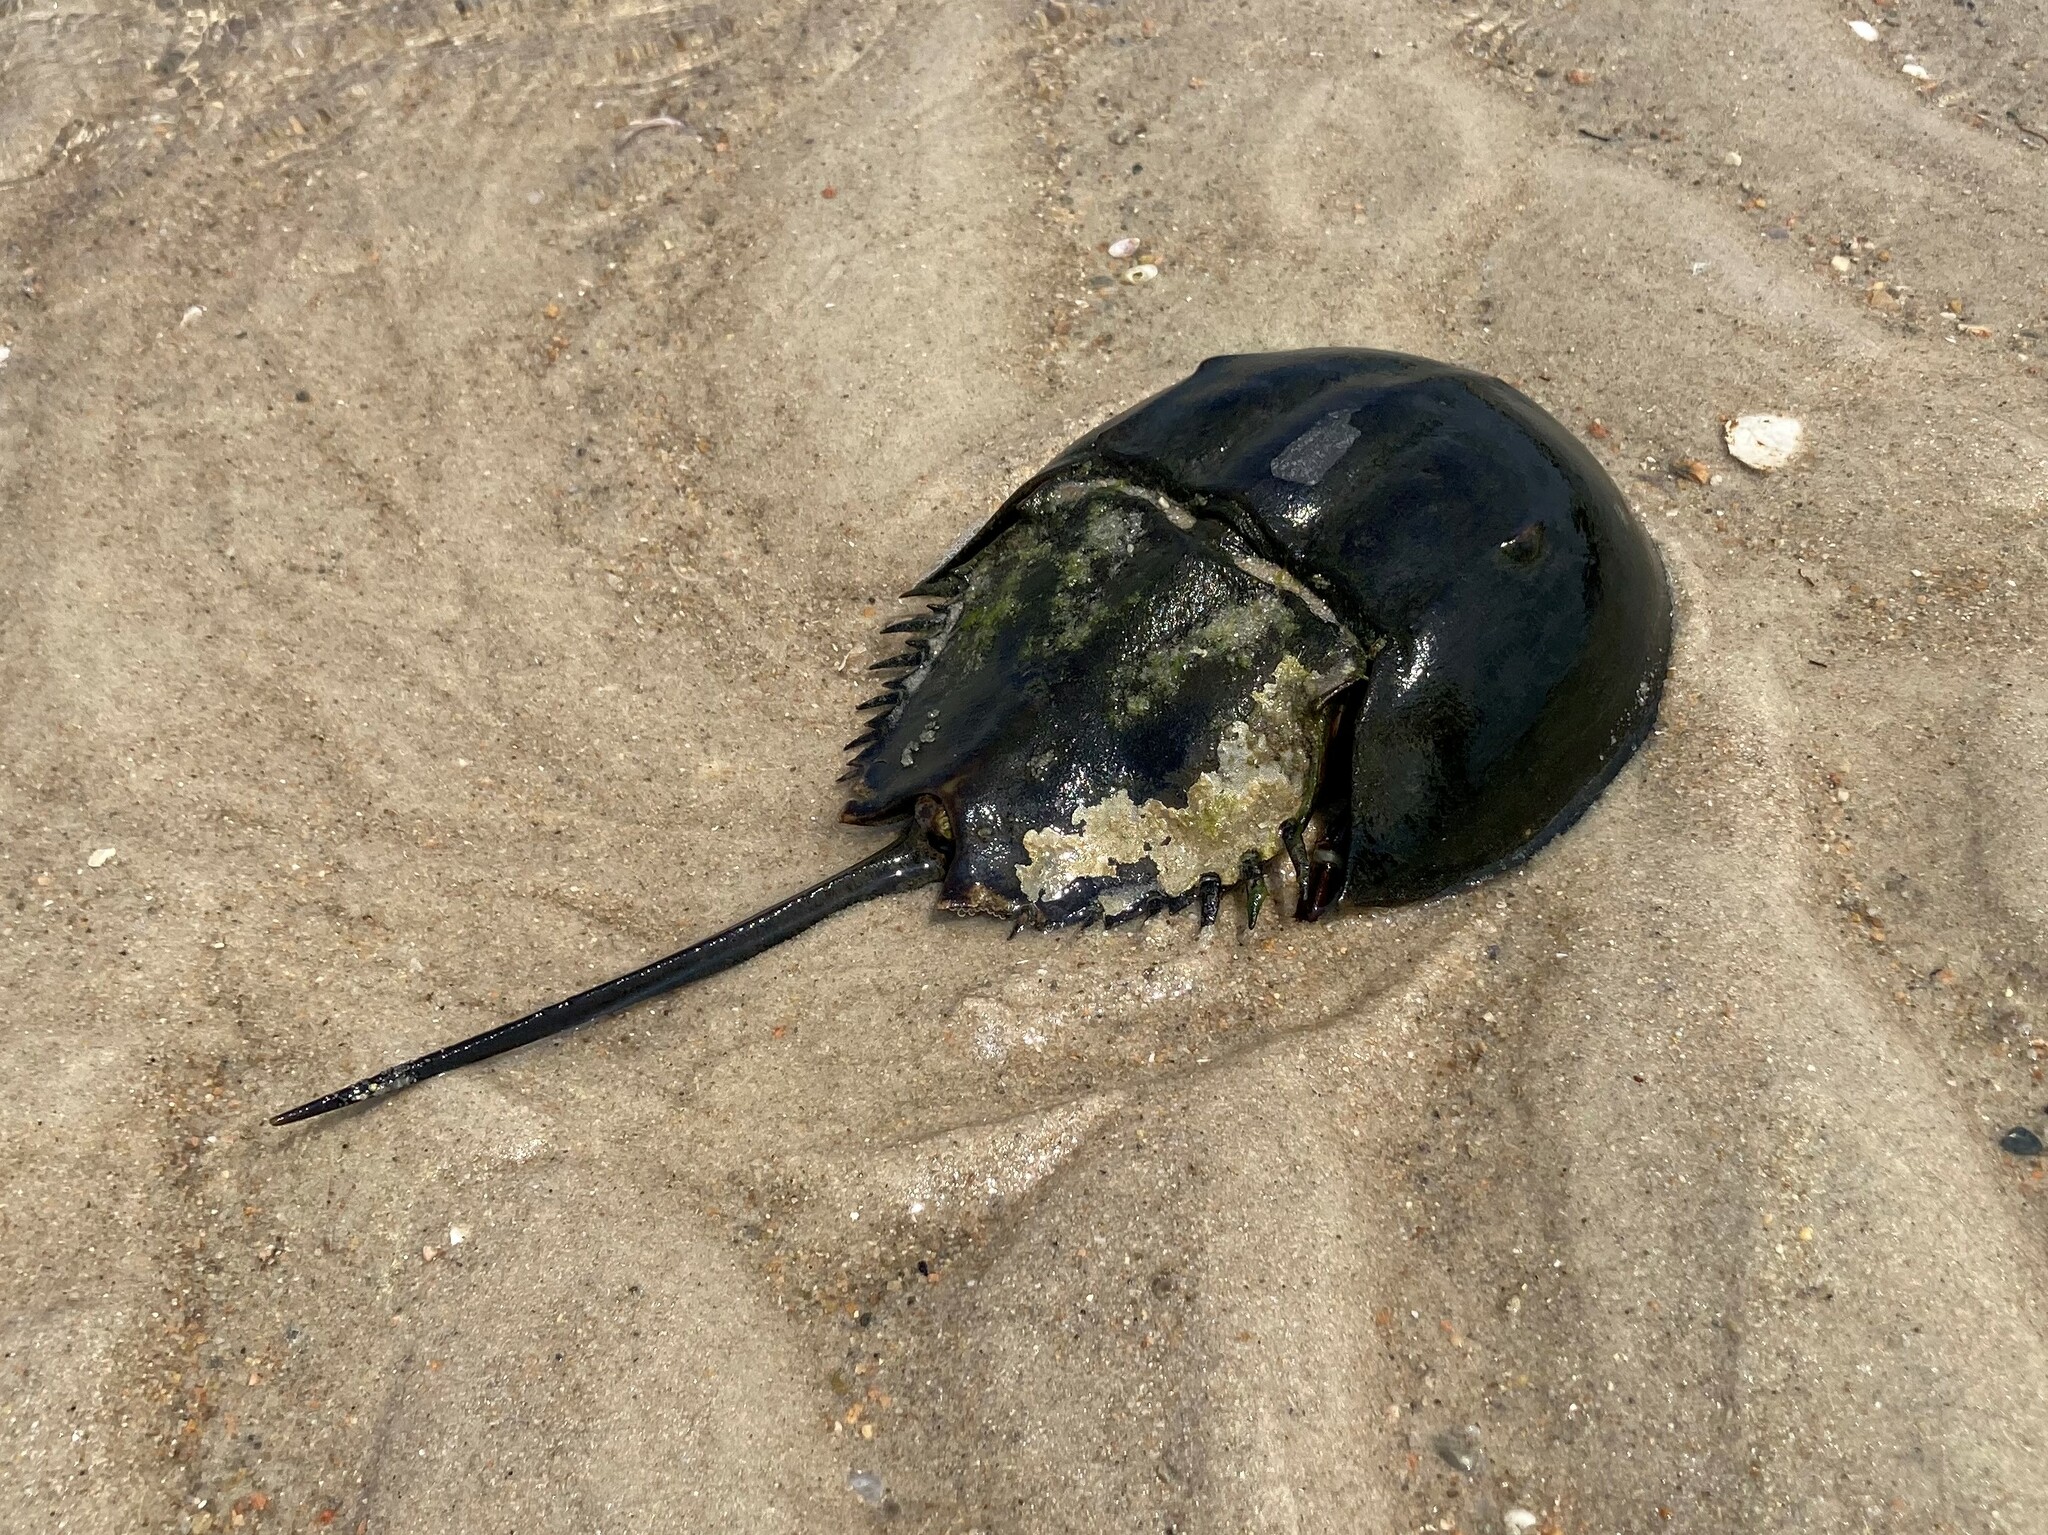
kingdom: Animalia
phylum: Arthropoda
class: Merostomata
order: Xiphosurida
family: Limulidae
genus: Limulus
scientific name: Limulus polyphemus
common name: Horseshoe crab
